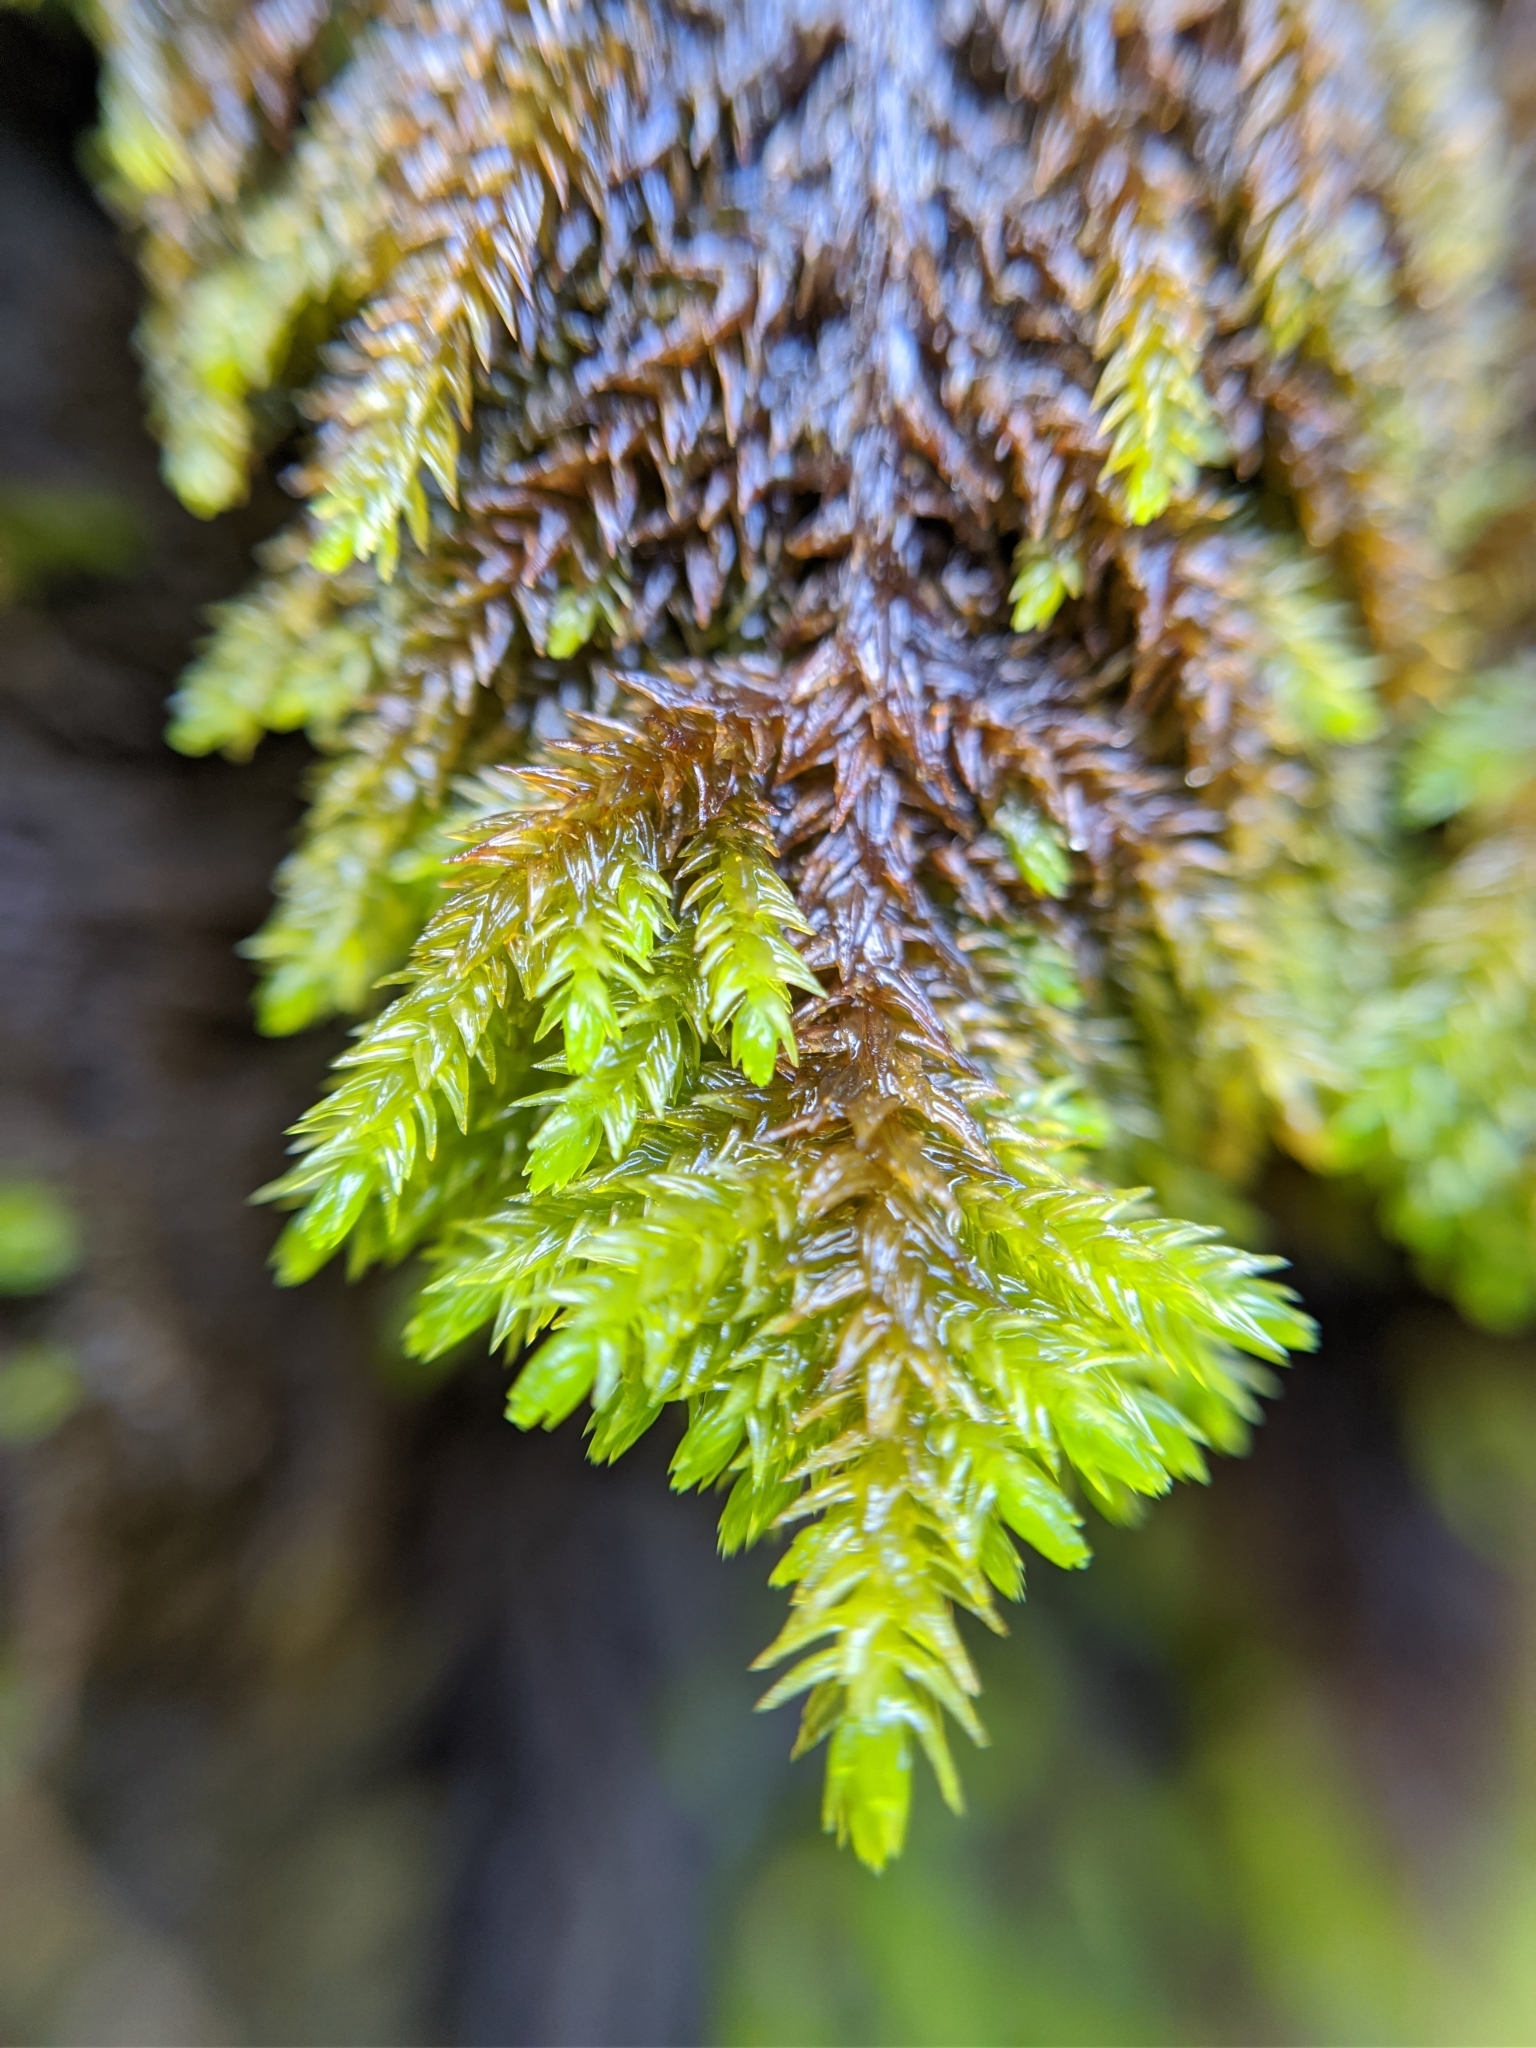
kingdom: Plantae
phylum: Bryophyta
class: Bryopsida
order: Hypnales
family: Cryphaeaceae
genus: Dendroalsia
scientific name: Dendroalsia abietina
